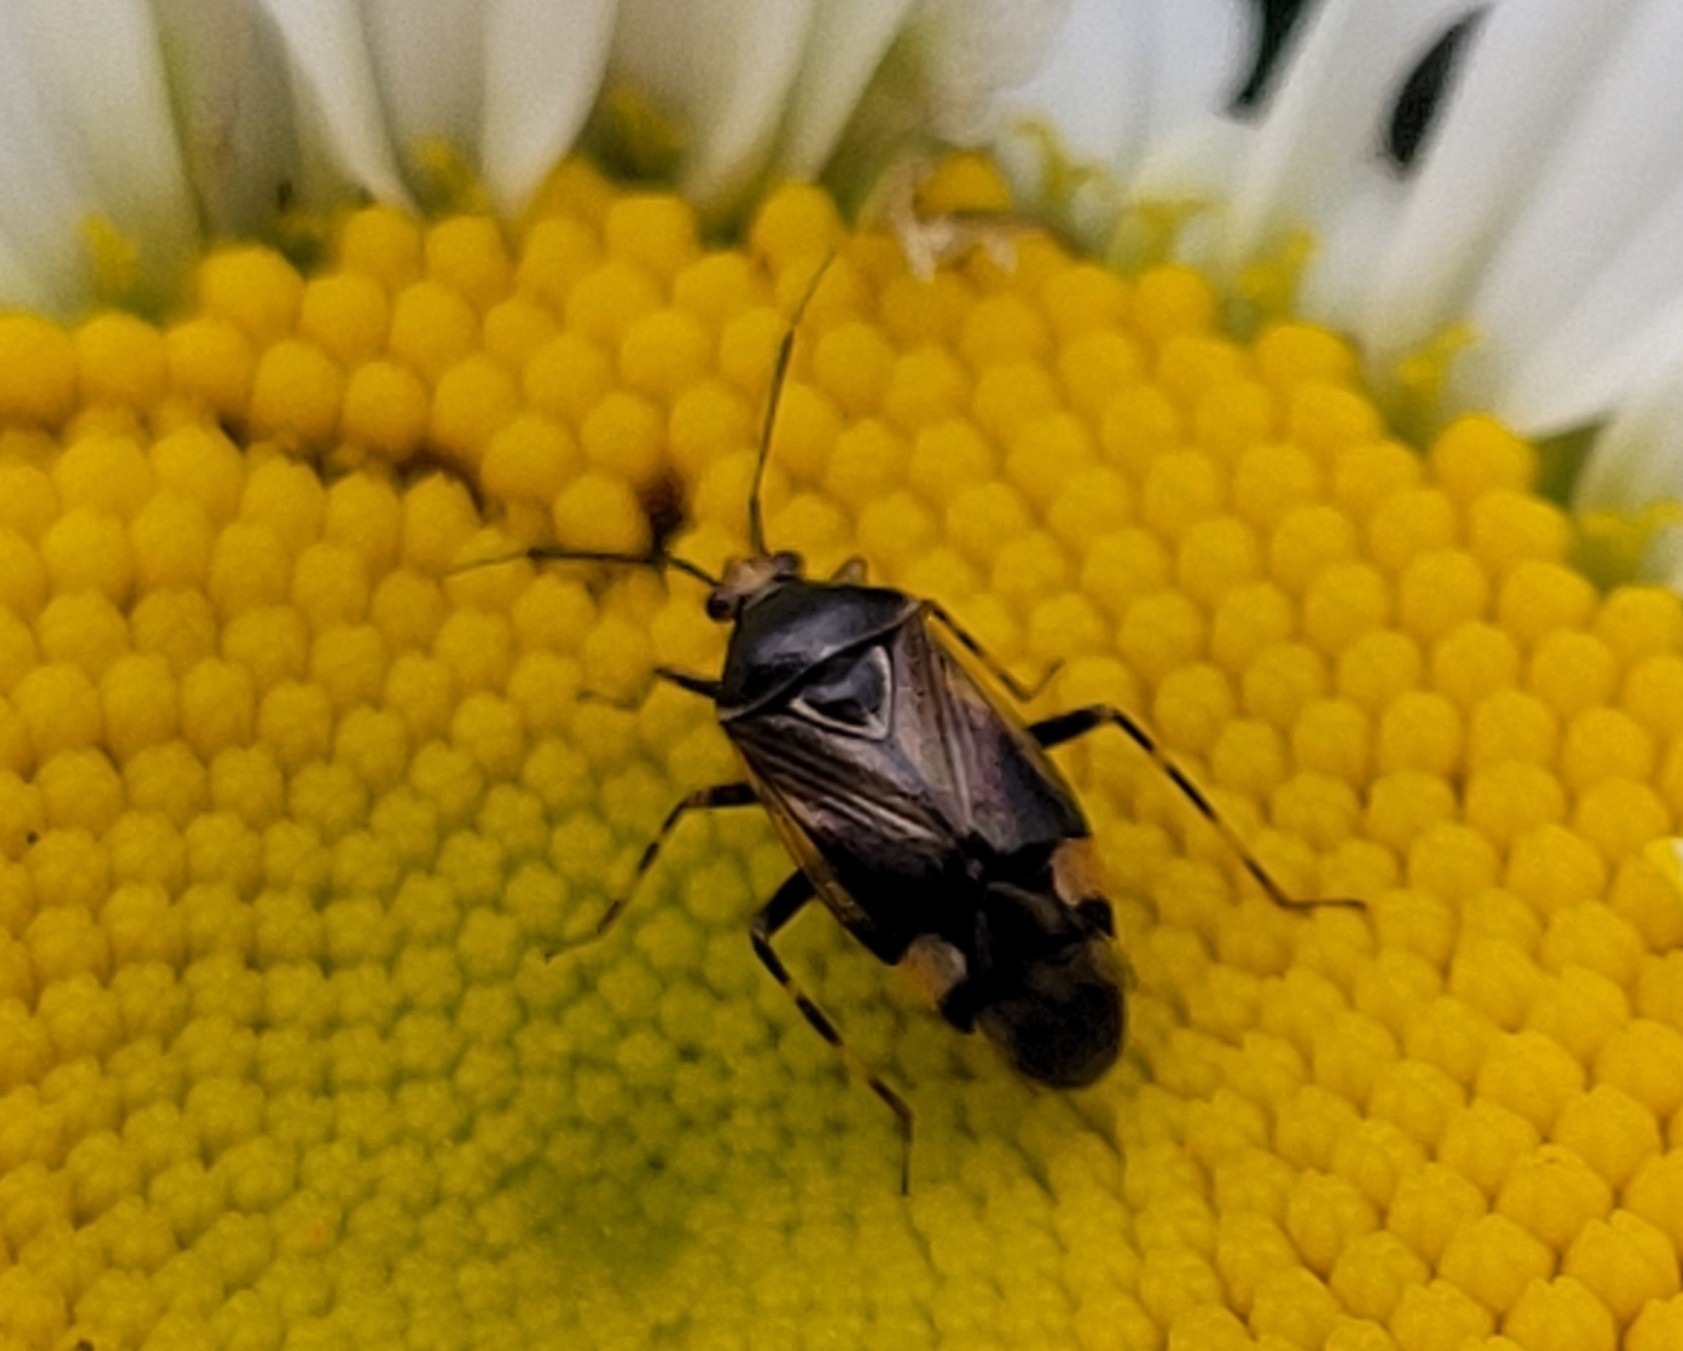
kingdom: Animalia
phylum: Arthropoda
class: Insecta
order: Hemiptera
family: Miridae
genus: Deraeocoris
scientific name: Deraeocoris flavilinea
